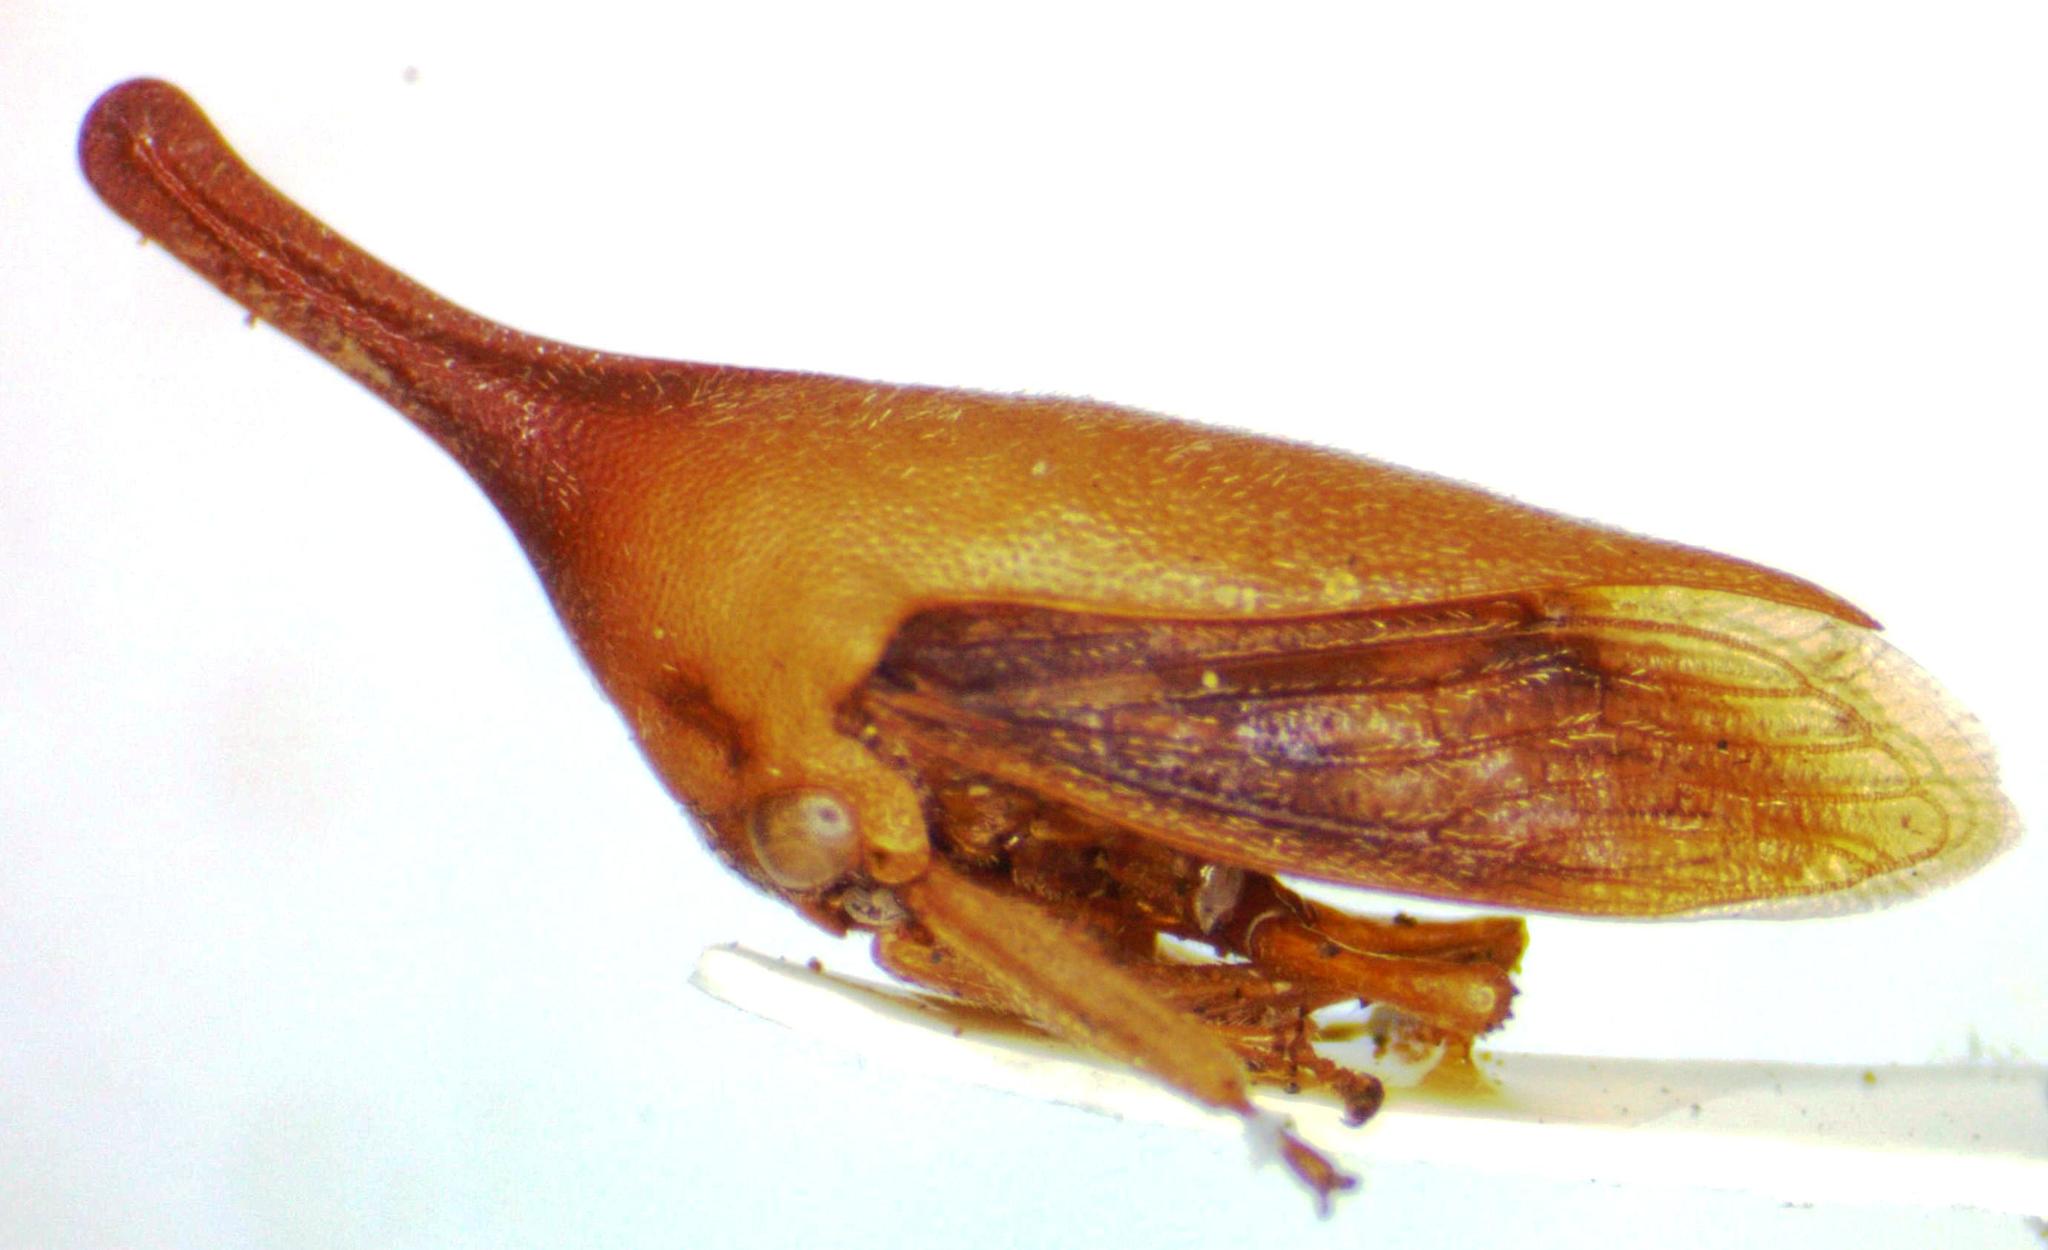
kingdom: Animalia
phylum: Arthropoda
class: Insecta
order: Hemiptera
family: Membracidae
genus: Guayaquila
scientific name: Guayaquila gracilicornis
